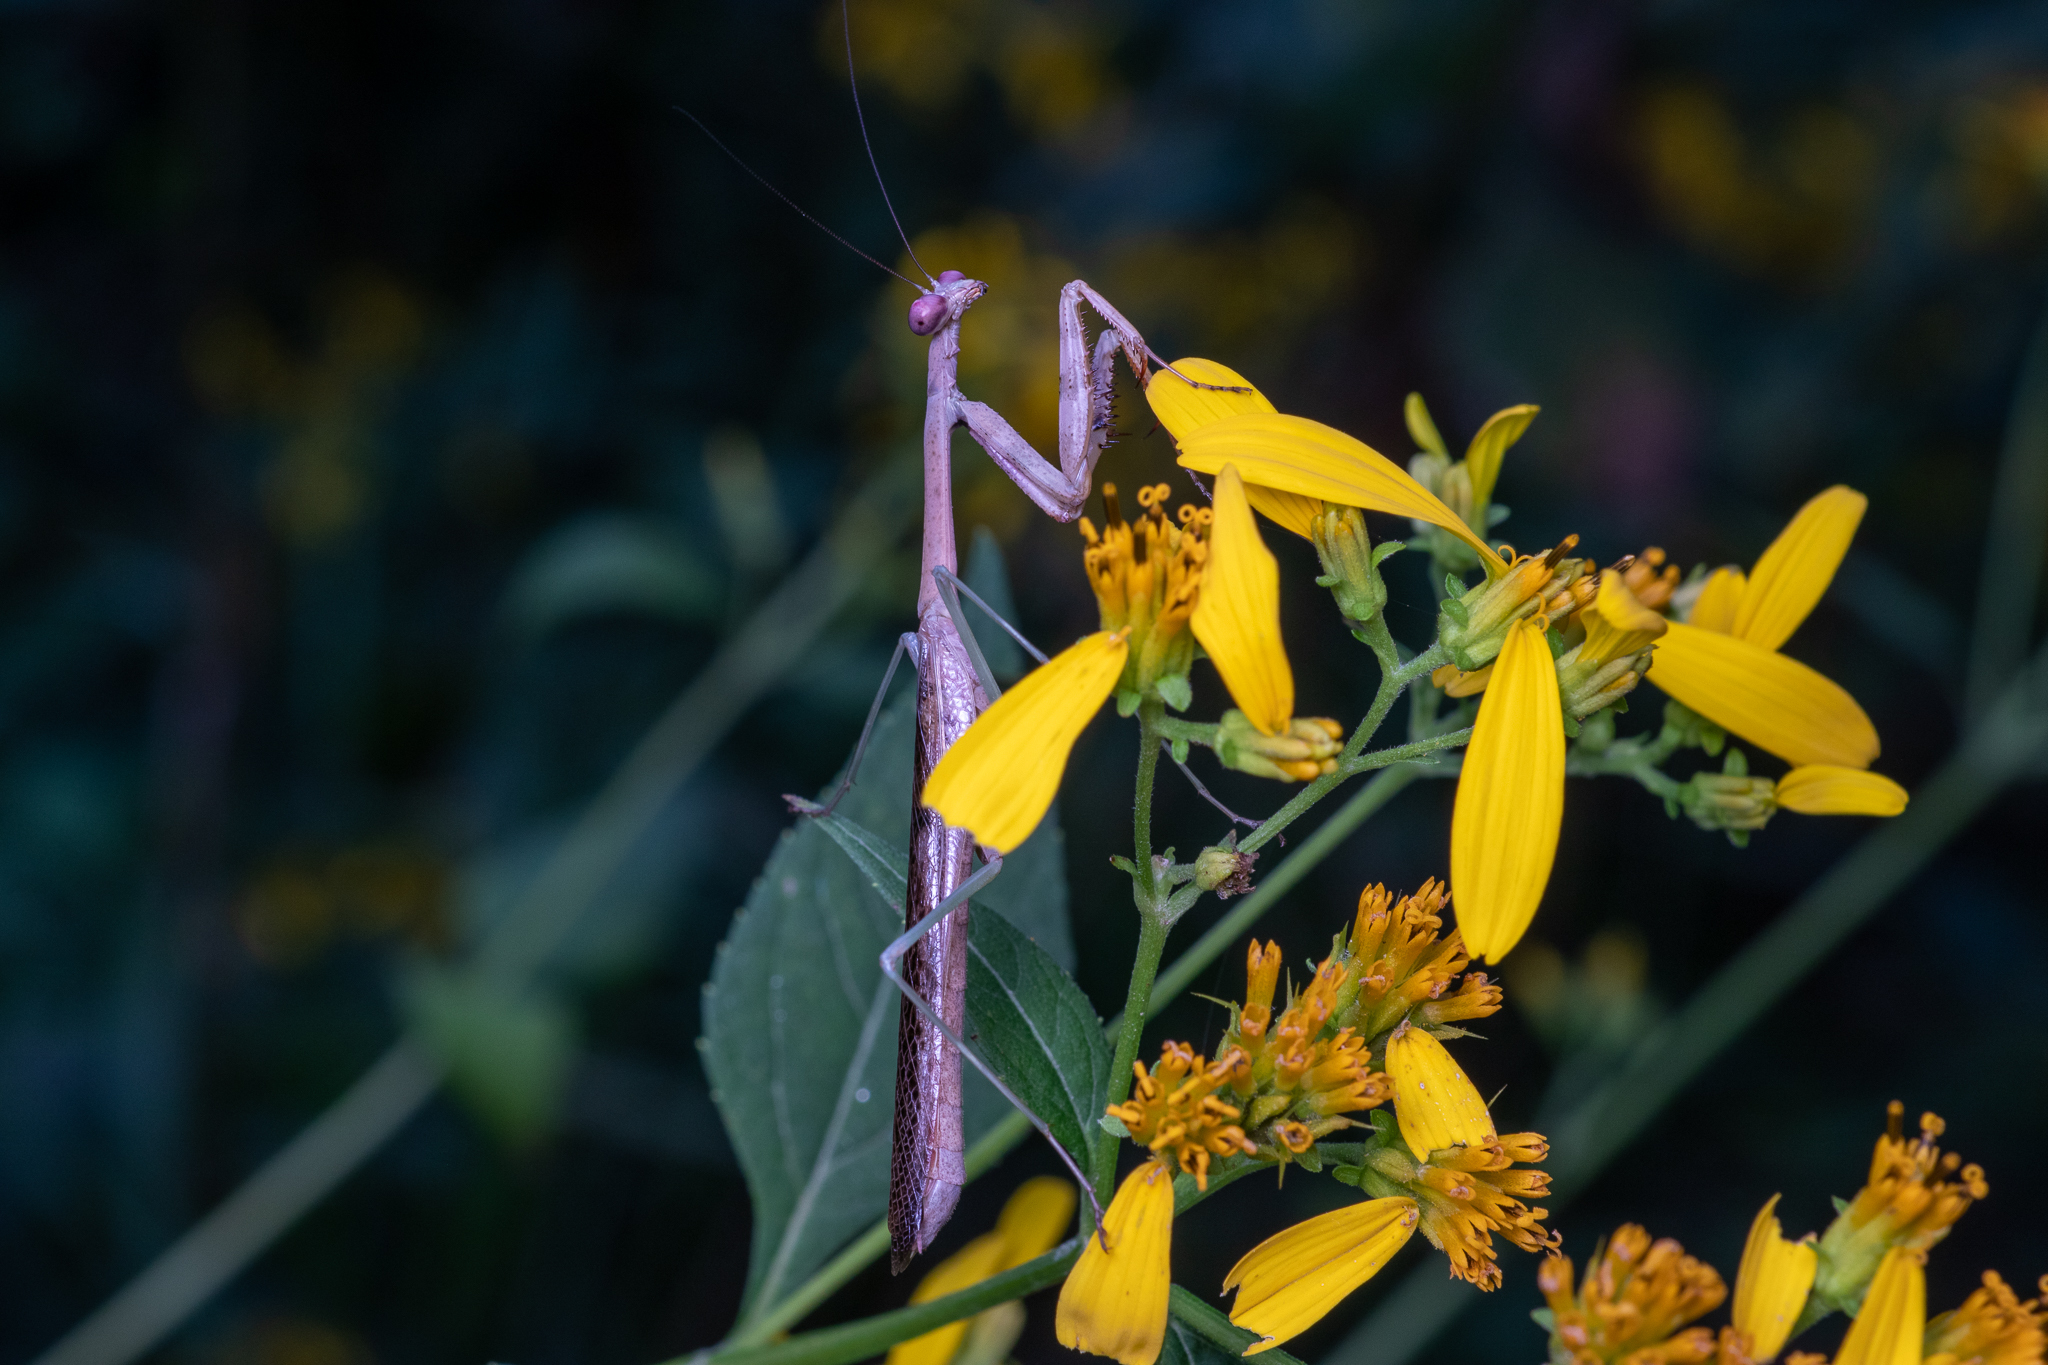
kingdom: Animalia
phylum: Arthropoda
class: Insecta
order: Mantodea
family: Mantidae
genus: Stagmomantis
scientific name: Stagmomantis carolina
